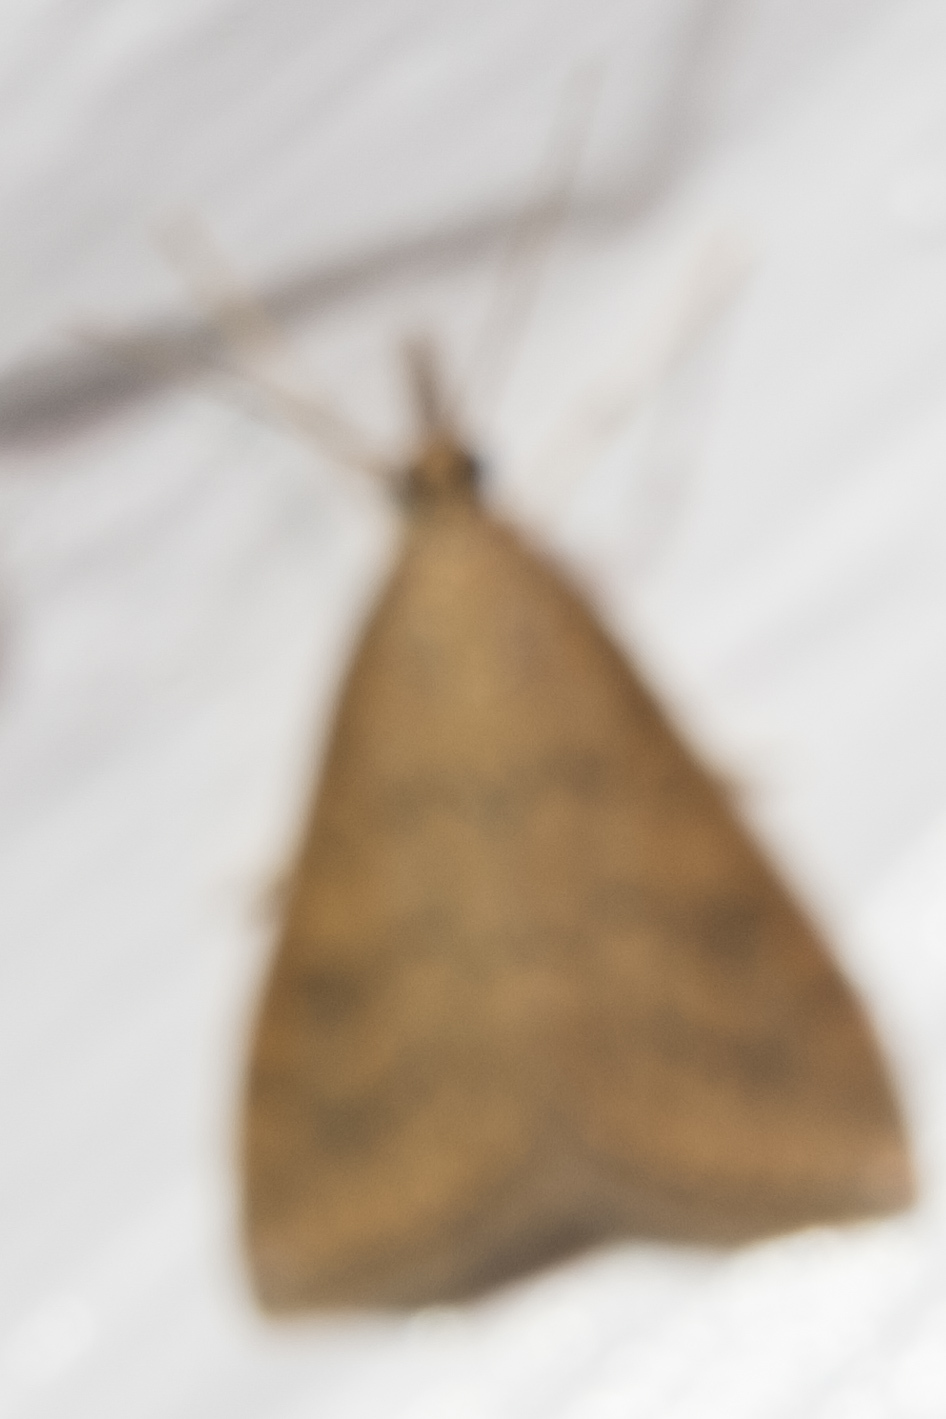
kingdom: Animalia
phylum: Arthropoda
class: Insecta
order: Lepidoptera
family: Crambidae
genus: Udea
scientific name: Udea rubigalis
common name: Celery leaftier moth
